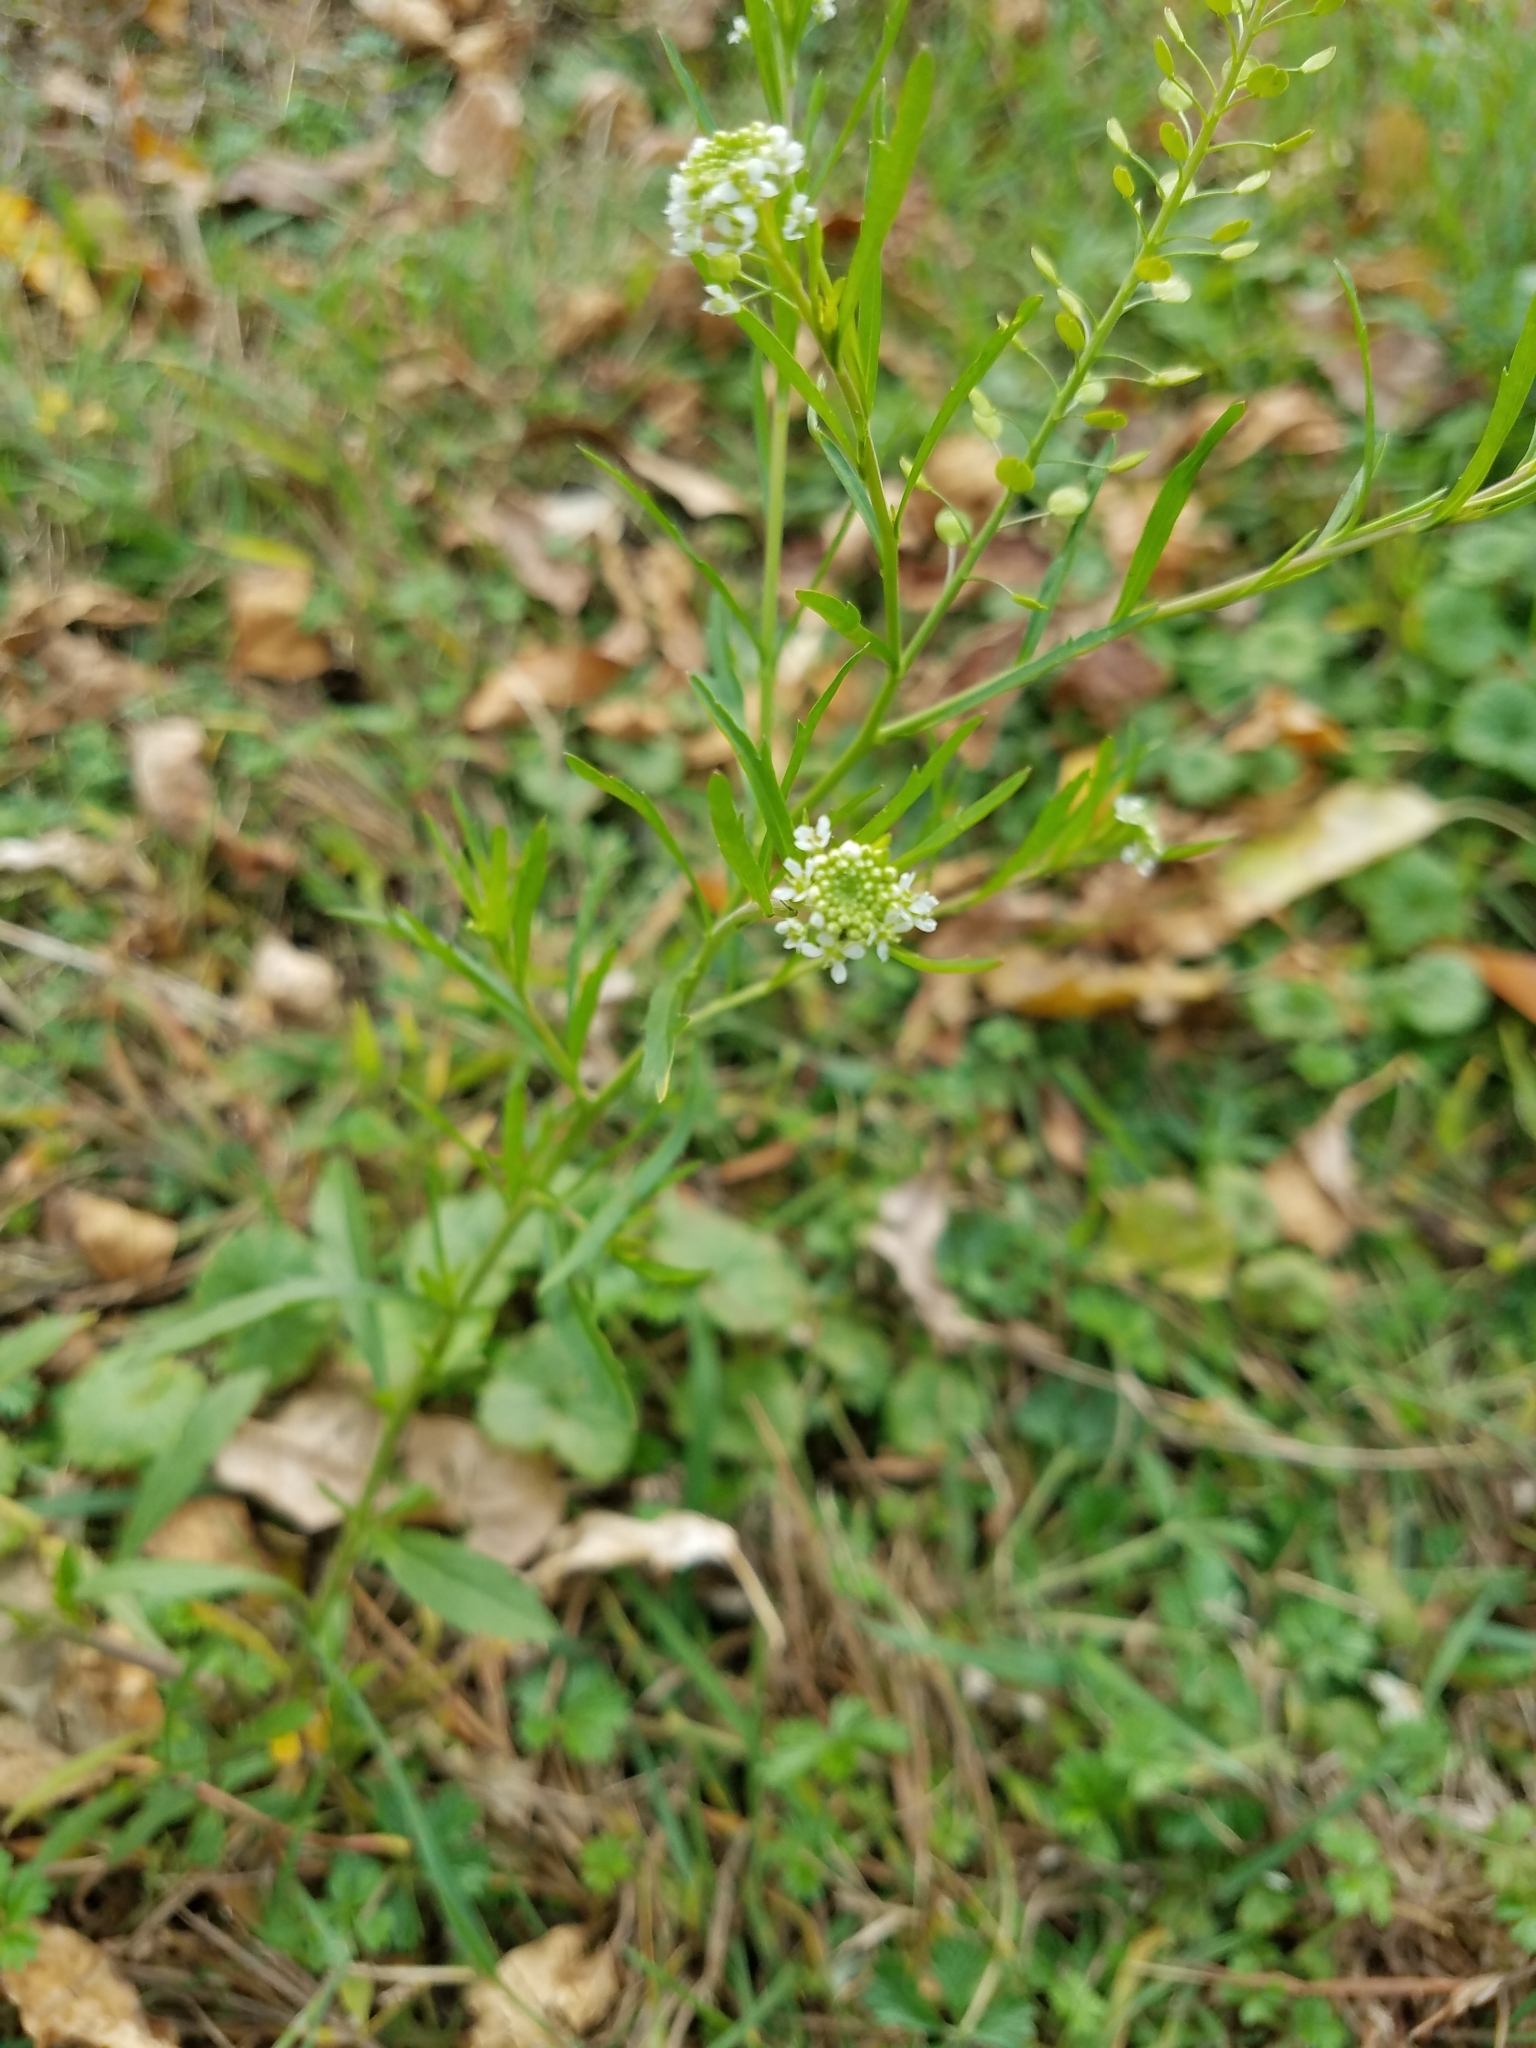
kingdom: Plantae
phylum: Tracheophyta
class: Magnoliopsida
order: Brassicales
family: Brassicaceae
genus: Lepidium
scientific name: Lepidium virginicum
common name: Least pepperwort
